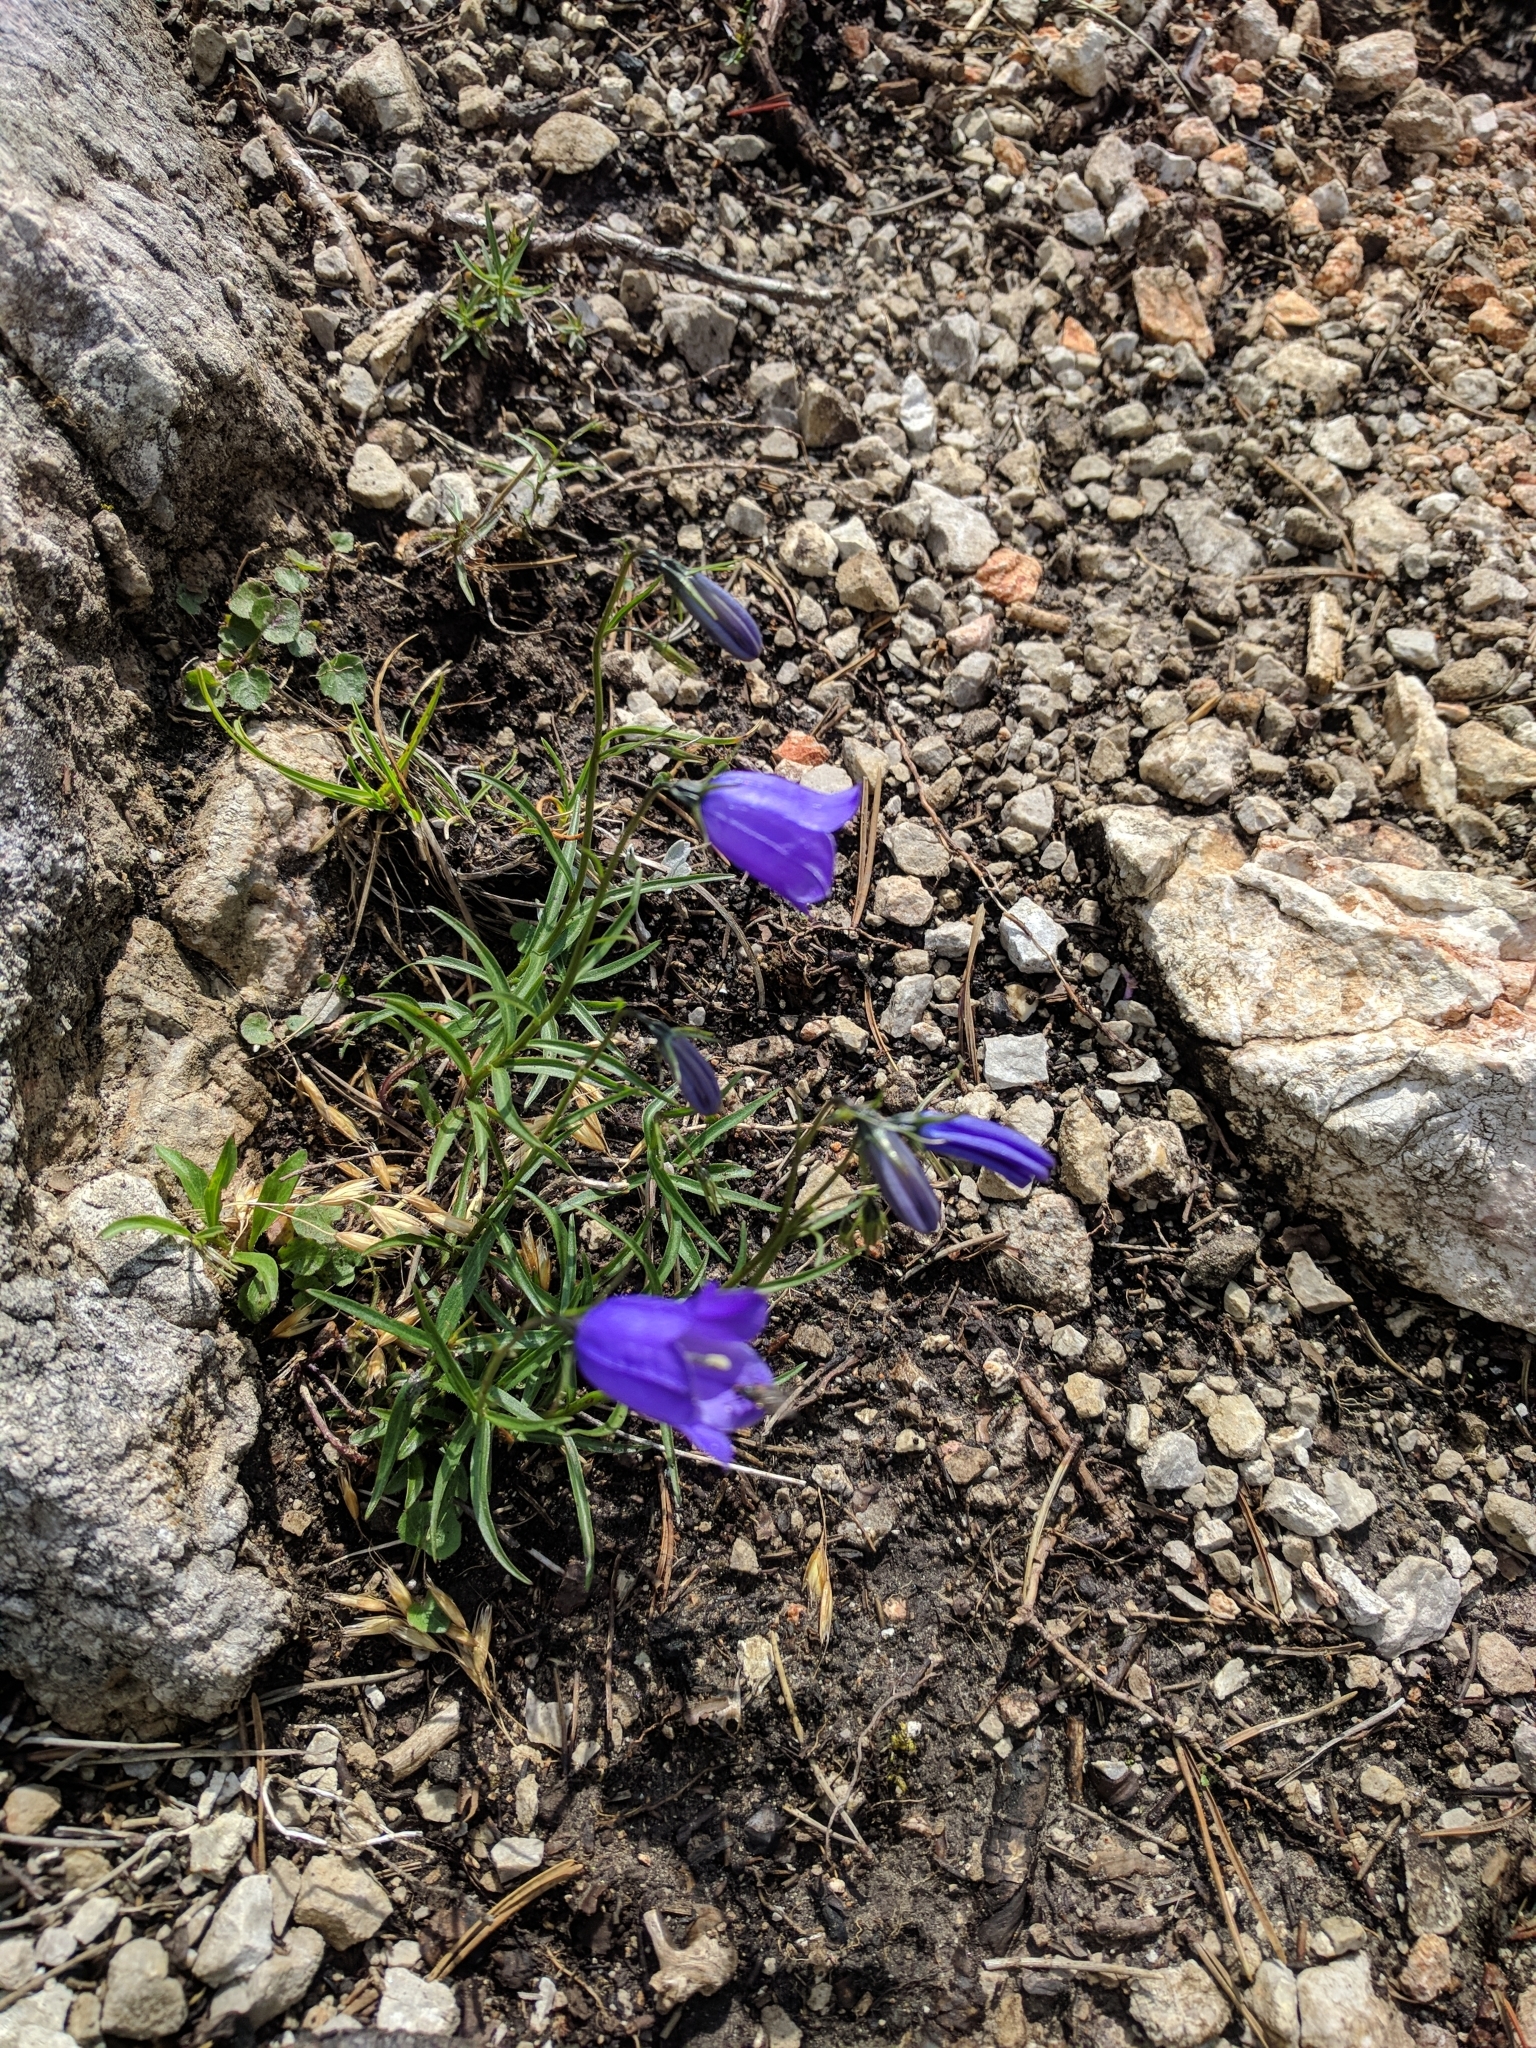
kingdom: Plantae
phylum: Tracheophyta
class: Magnoliopsida
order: Asterales
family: Campanulaceae
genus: Campanula
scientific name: Campanula scheuchzeri
